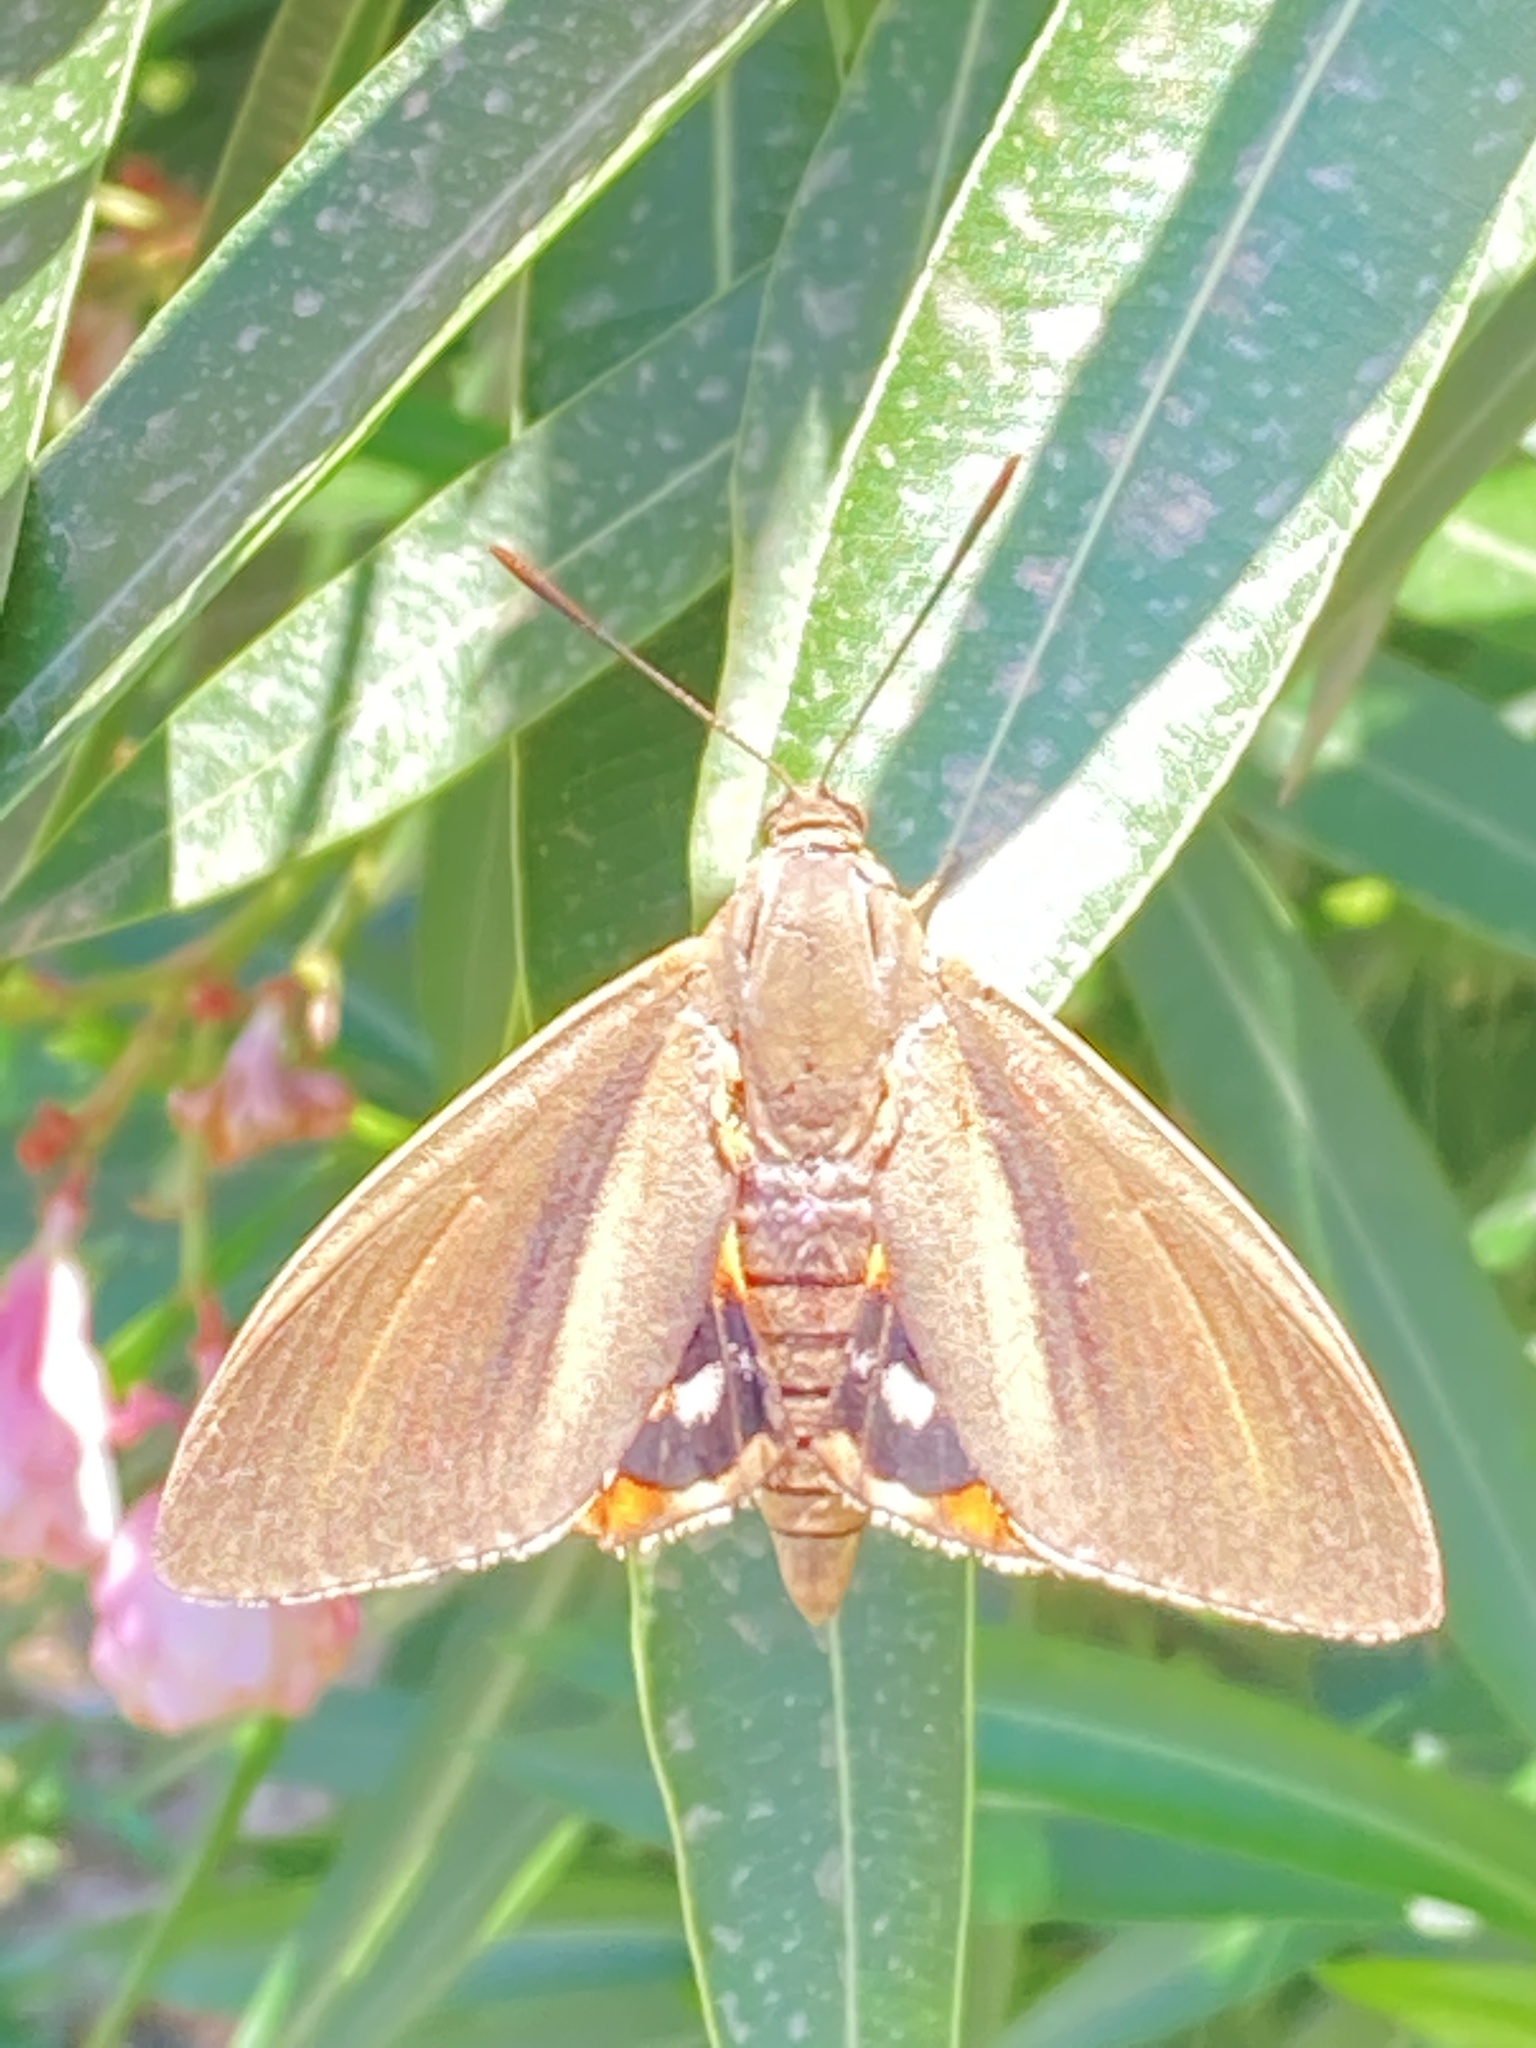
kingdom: Animalia
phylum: Arthropoda
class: Insecta
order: Lepidoptera
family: Castniidae
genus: Paysandisia
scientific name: Paysandisia archon
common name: Palm moth
